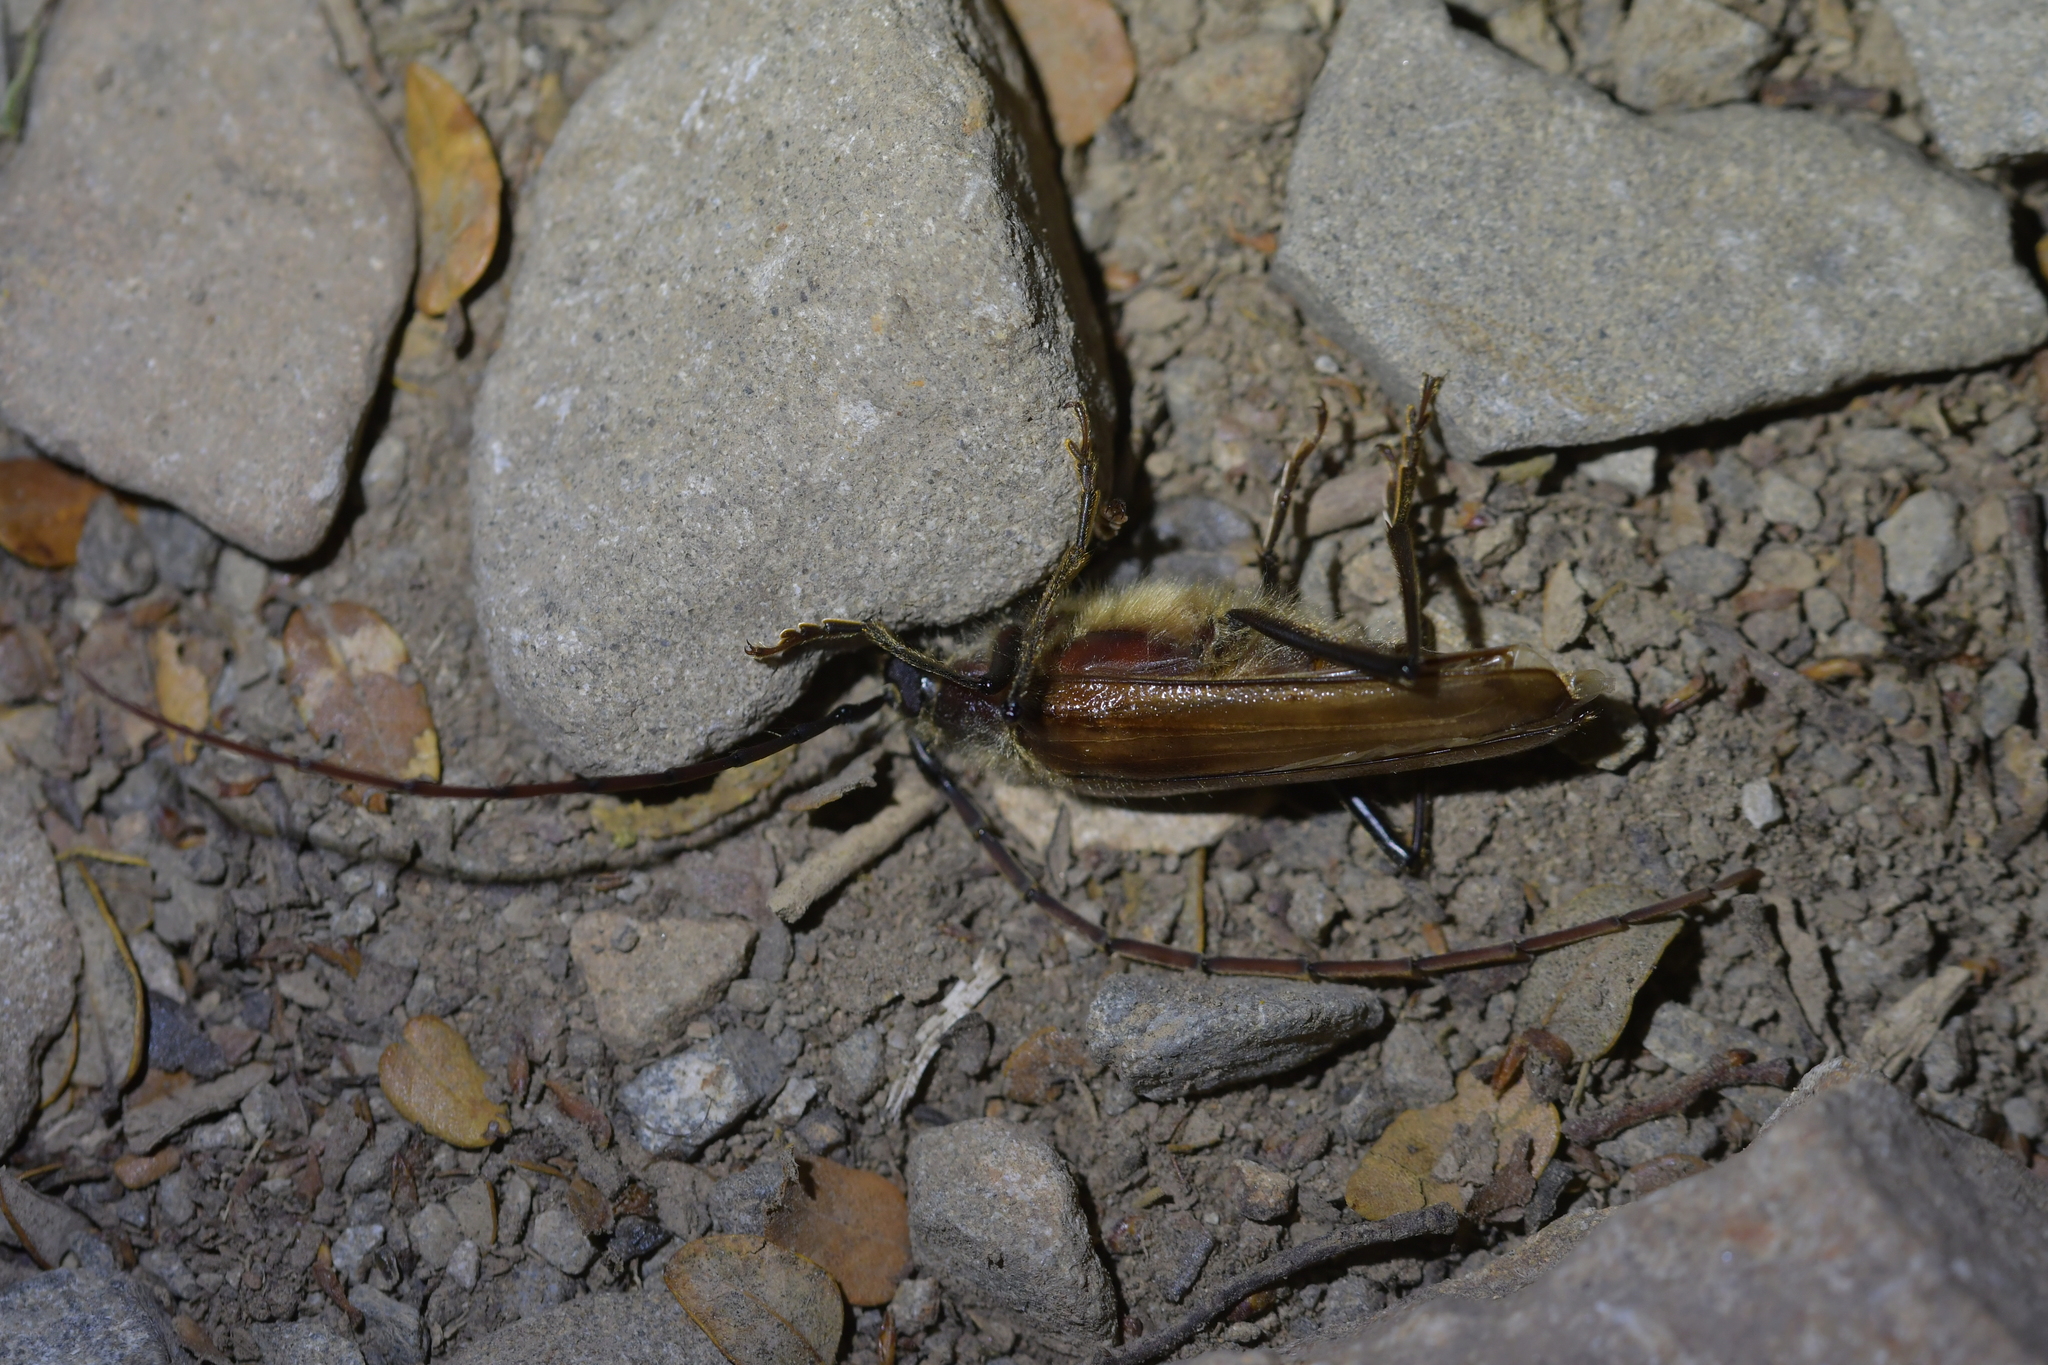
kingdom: Animalia
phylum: Arthropoda
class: Insecta
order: Coleoptera
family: Cerambycidae
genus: Ochrocydus
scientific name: Ochrocydus huttoni
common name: Kanuka longhorn
